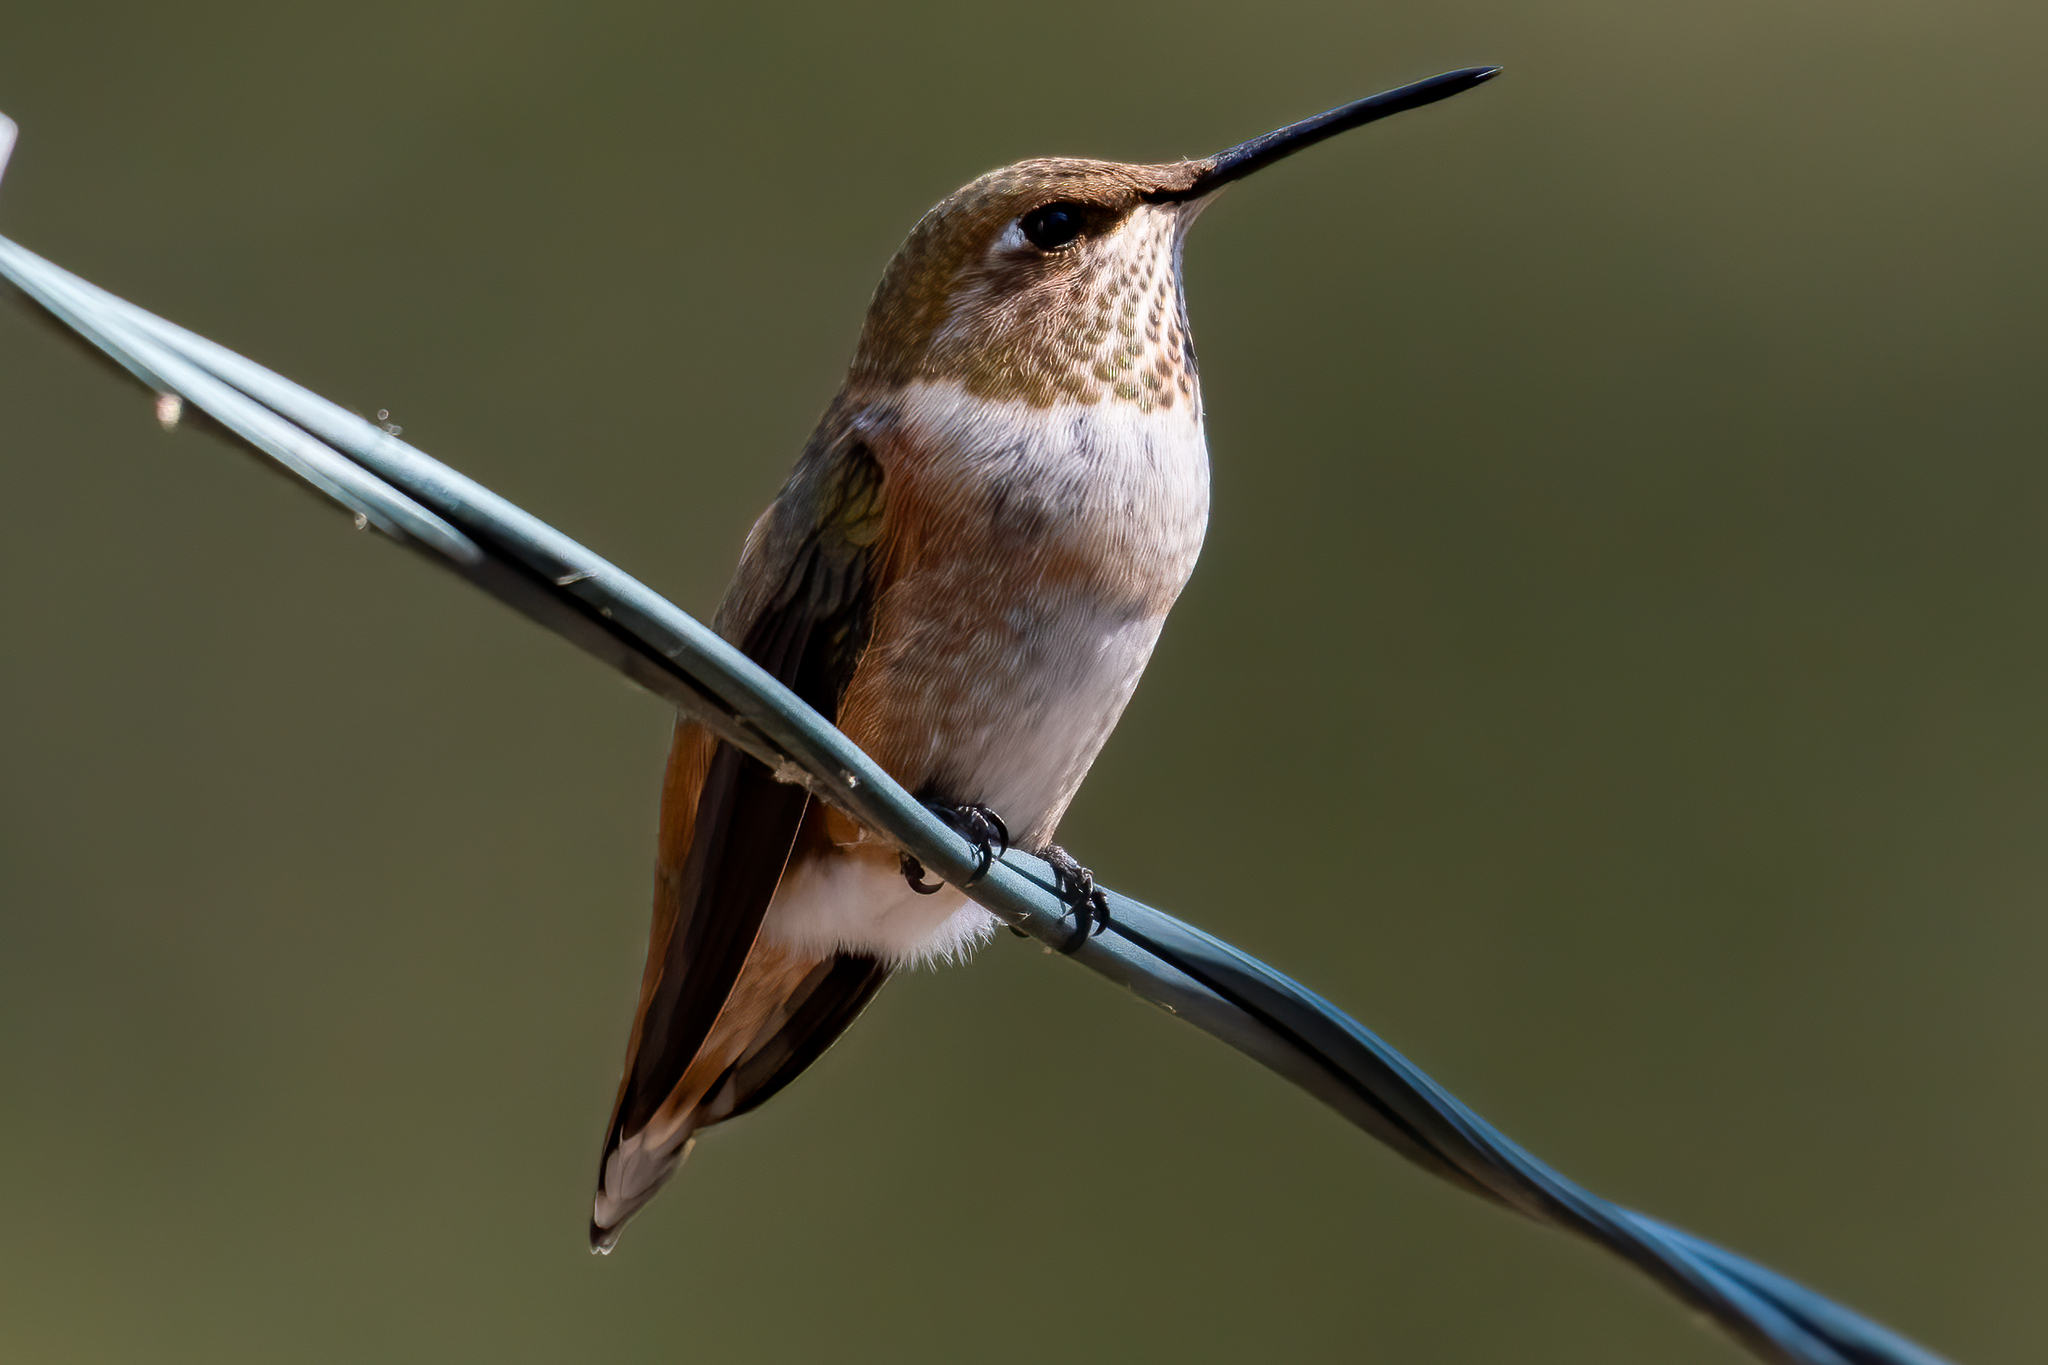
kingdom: Animalia
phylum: Chordata
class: Aves
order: Apodiformes
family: Trochilidae
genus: Selasphorus
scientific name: Selasphorus rufus
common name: Rufous hummingbird
